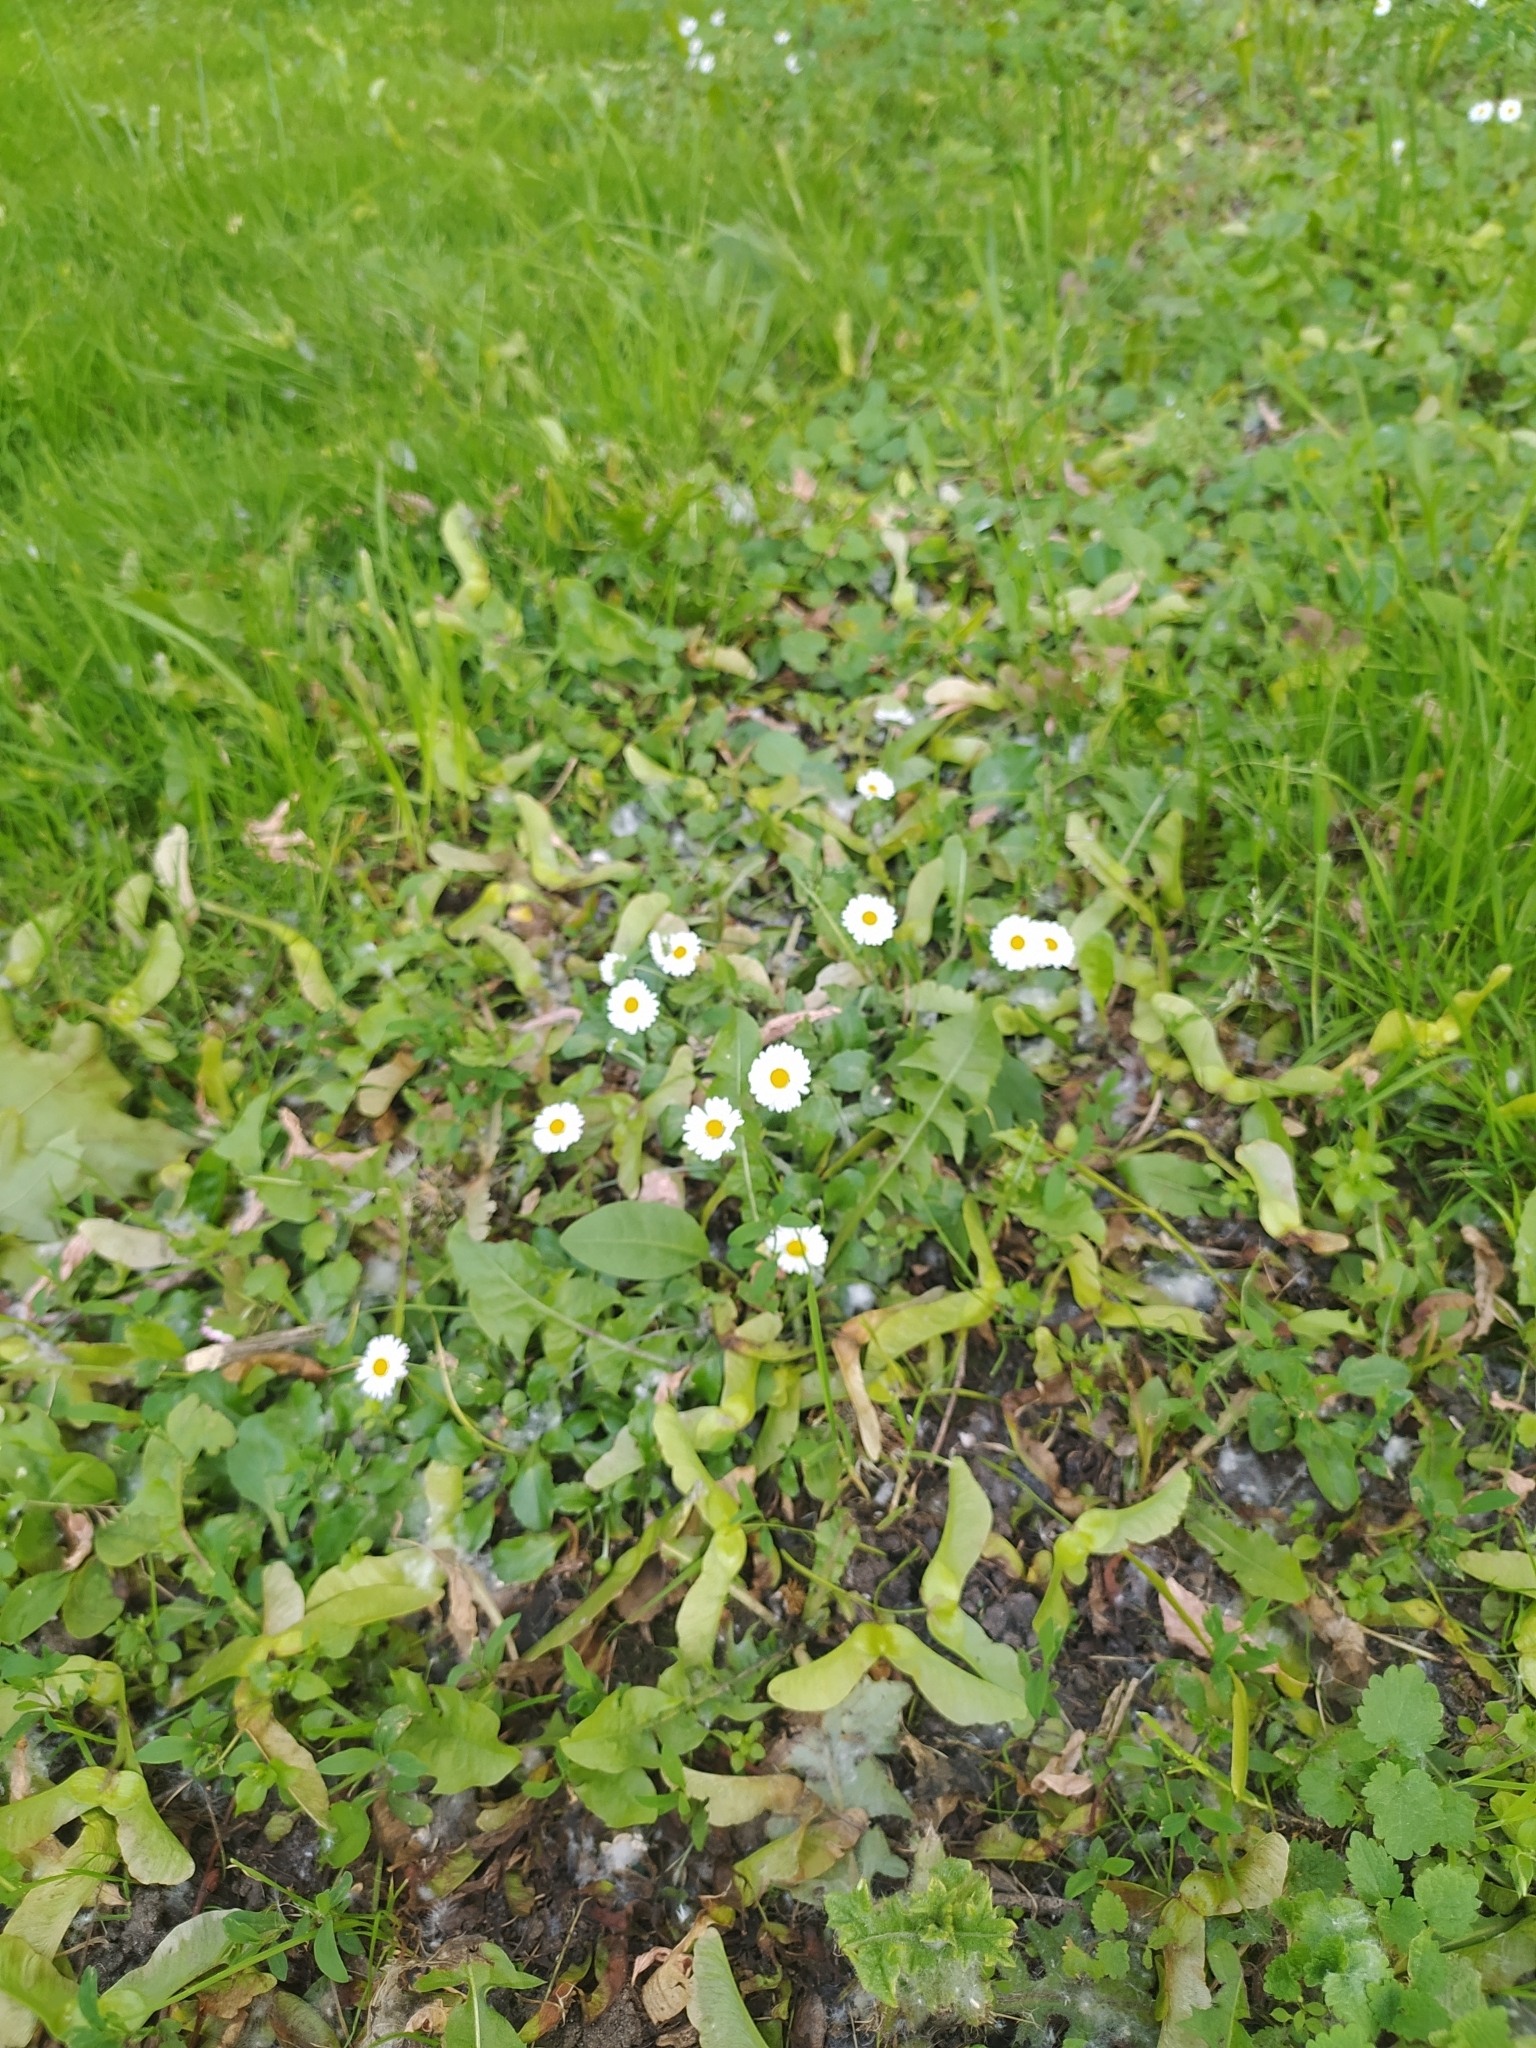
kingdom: Plantae
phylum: Tracheophyta
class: Magnoliopsida
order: Asterales
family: Asteraceae
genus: Bellis
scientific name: Bellis perennis
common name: Lawndaisy
